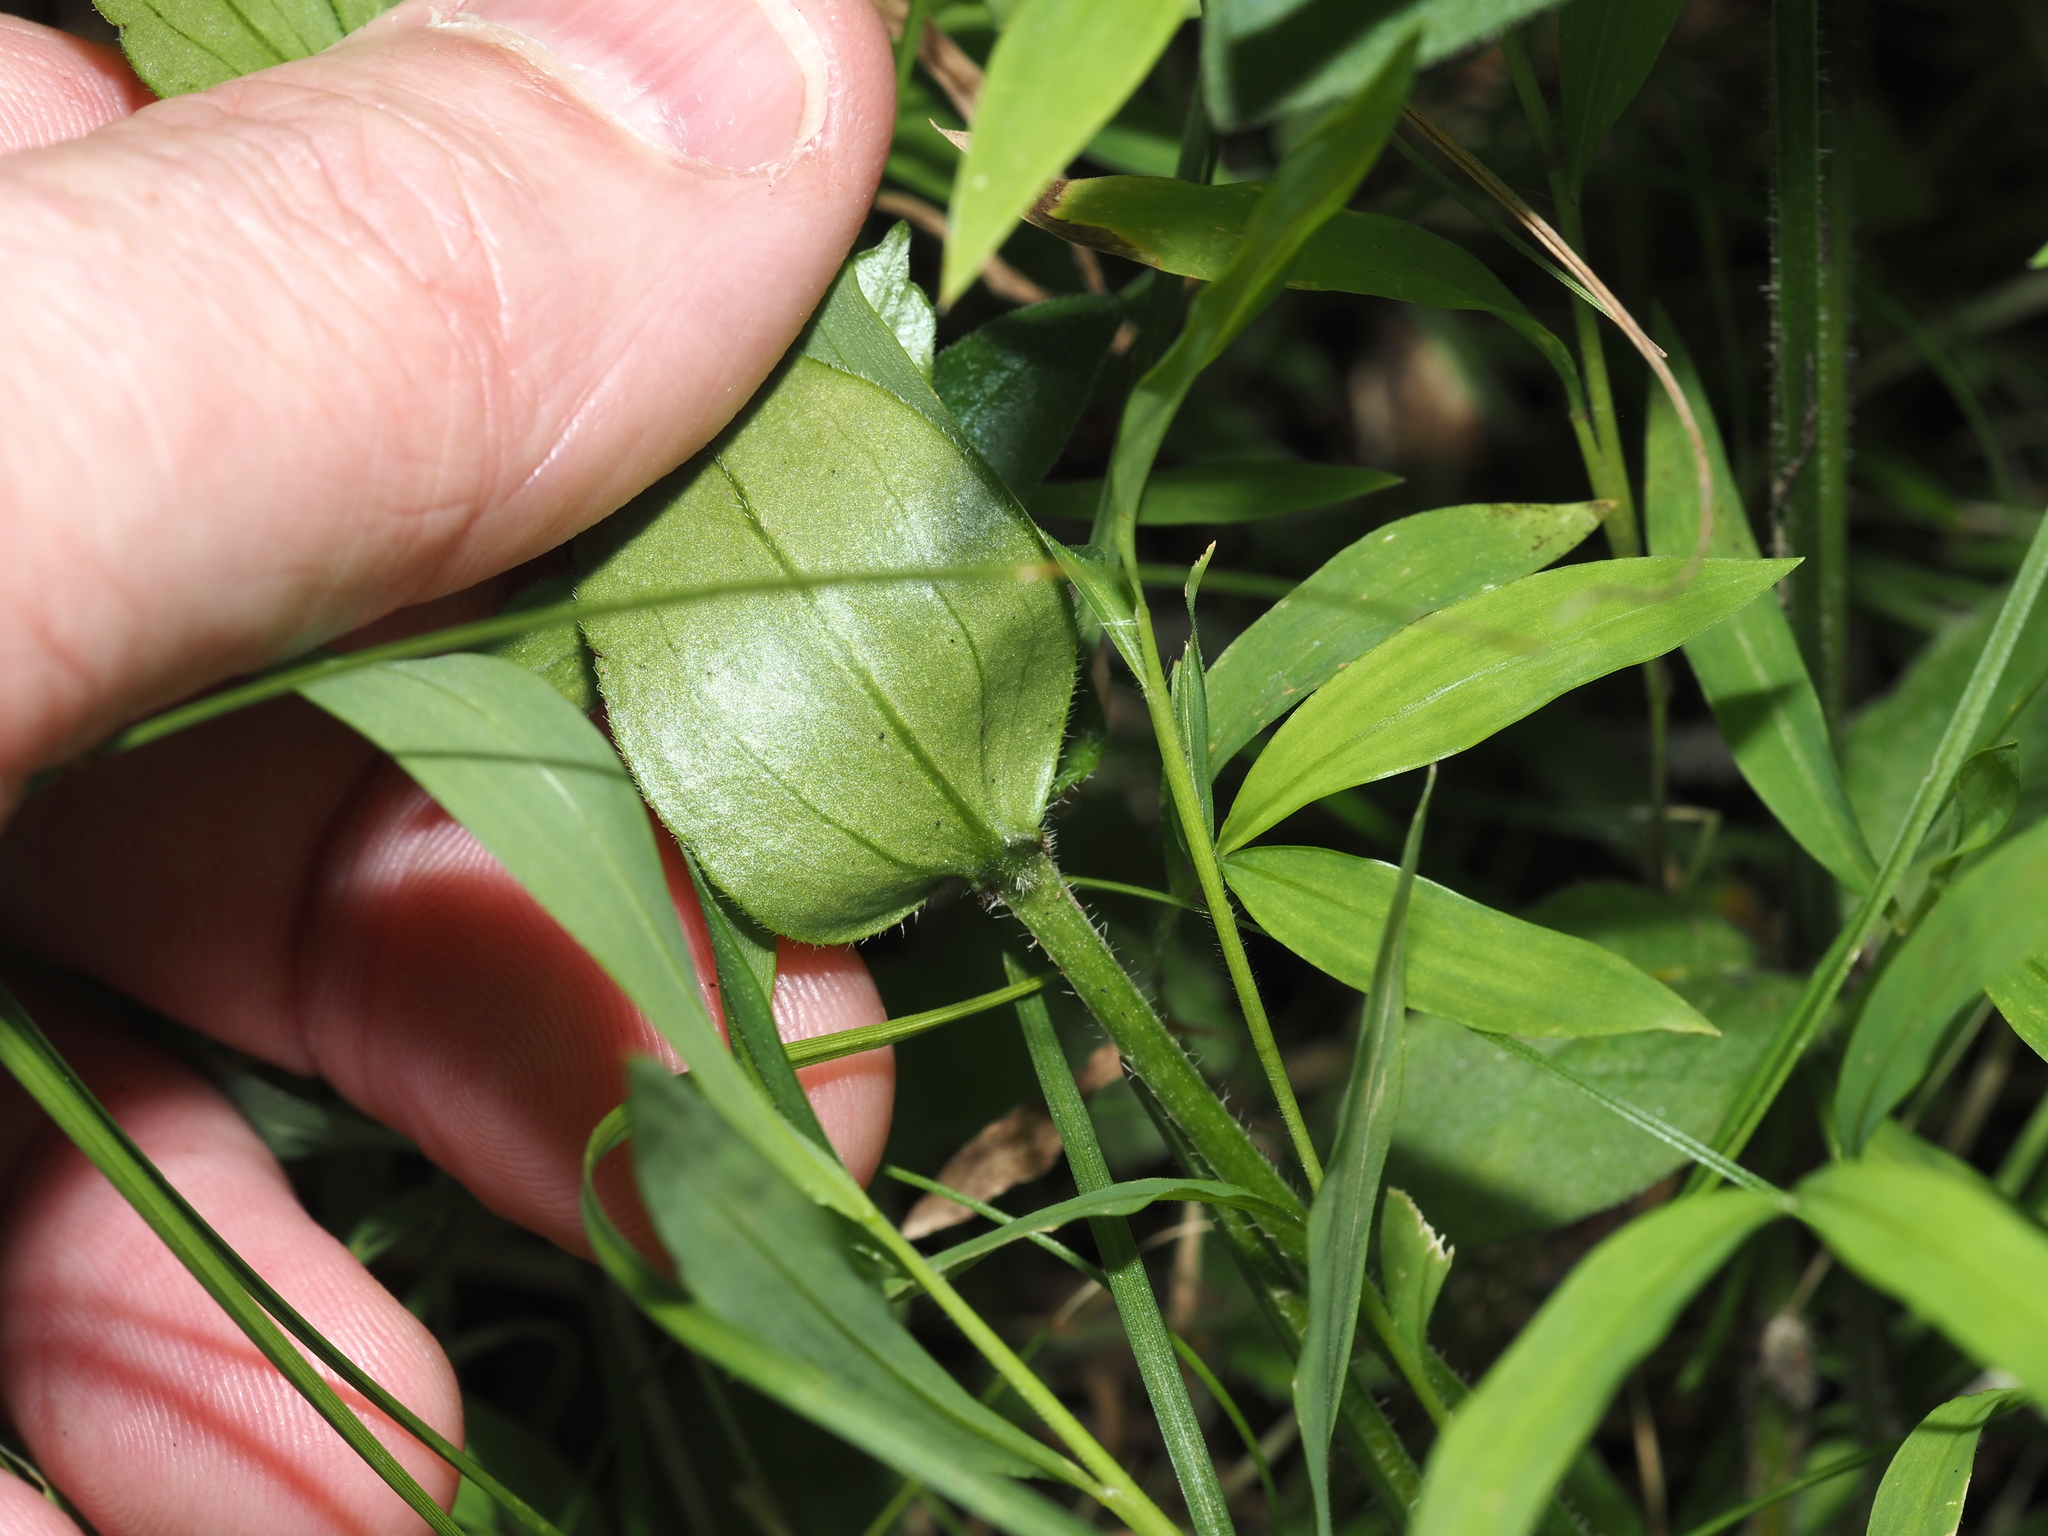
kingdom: Plantae
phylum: Tracheophyta
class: Magnoliopsida
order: Gentianales
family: Rubiaceae
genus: Houstonia
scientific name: Houstonia purpurea
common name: Summer bluet
